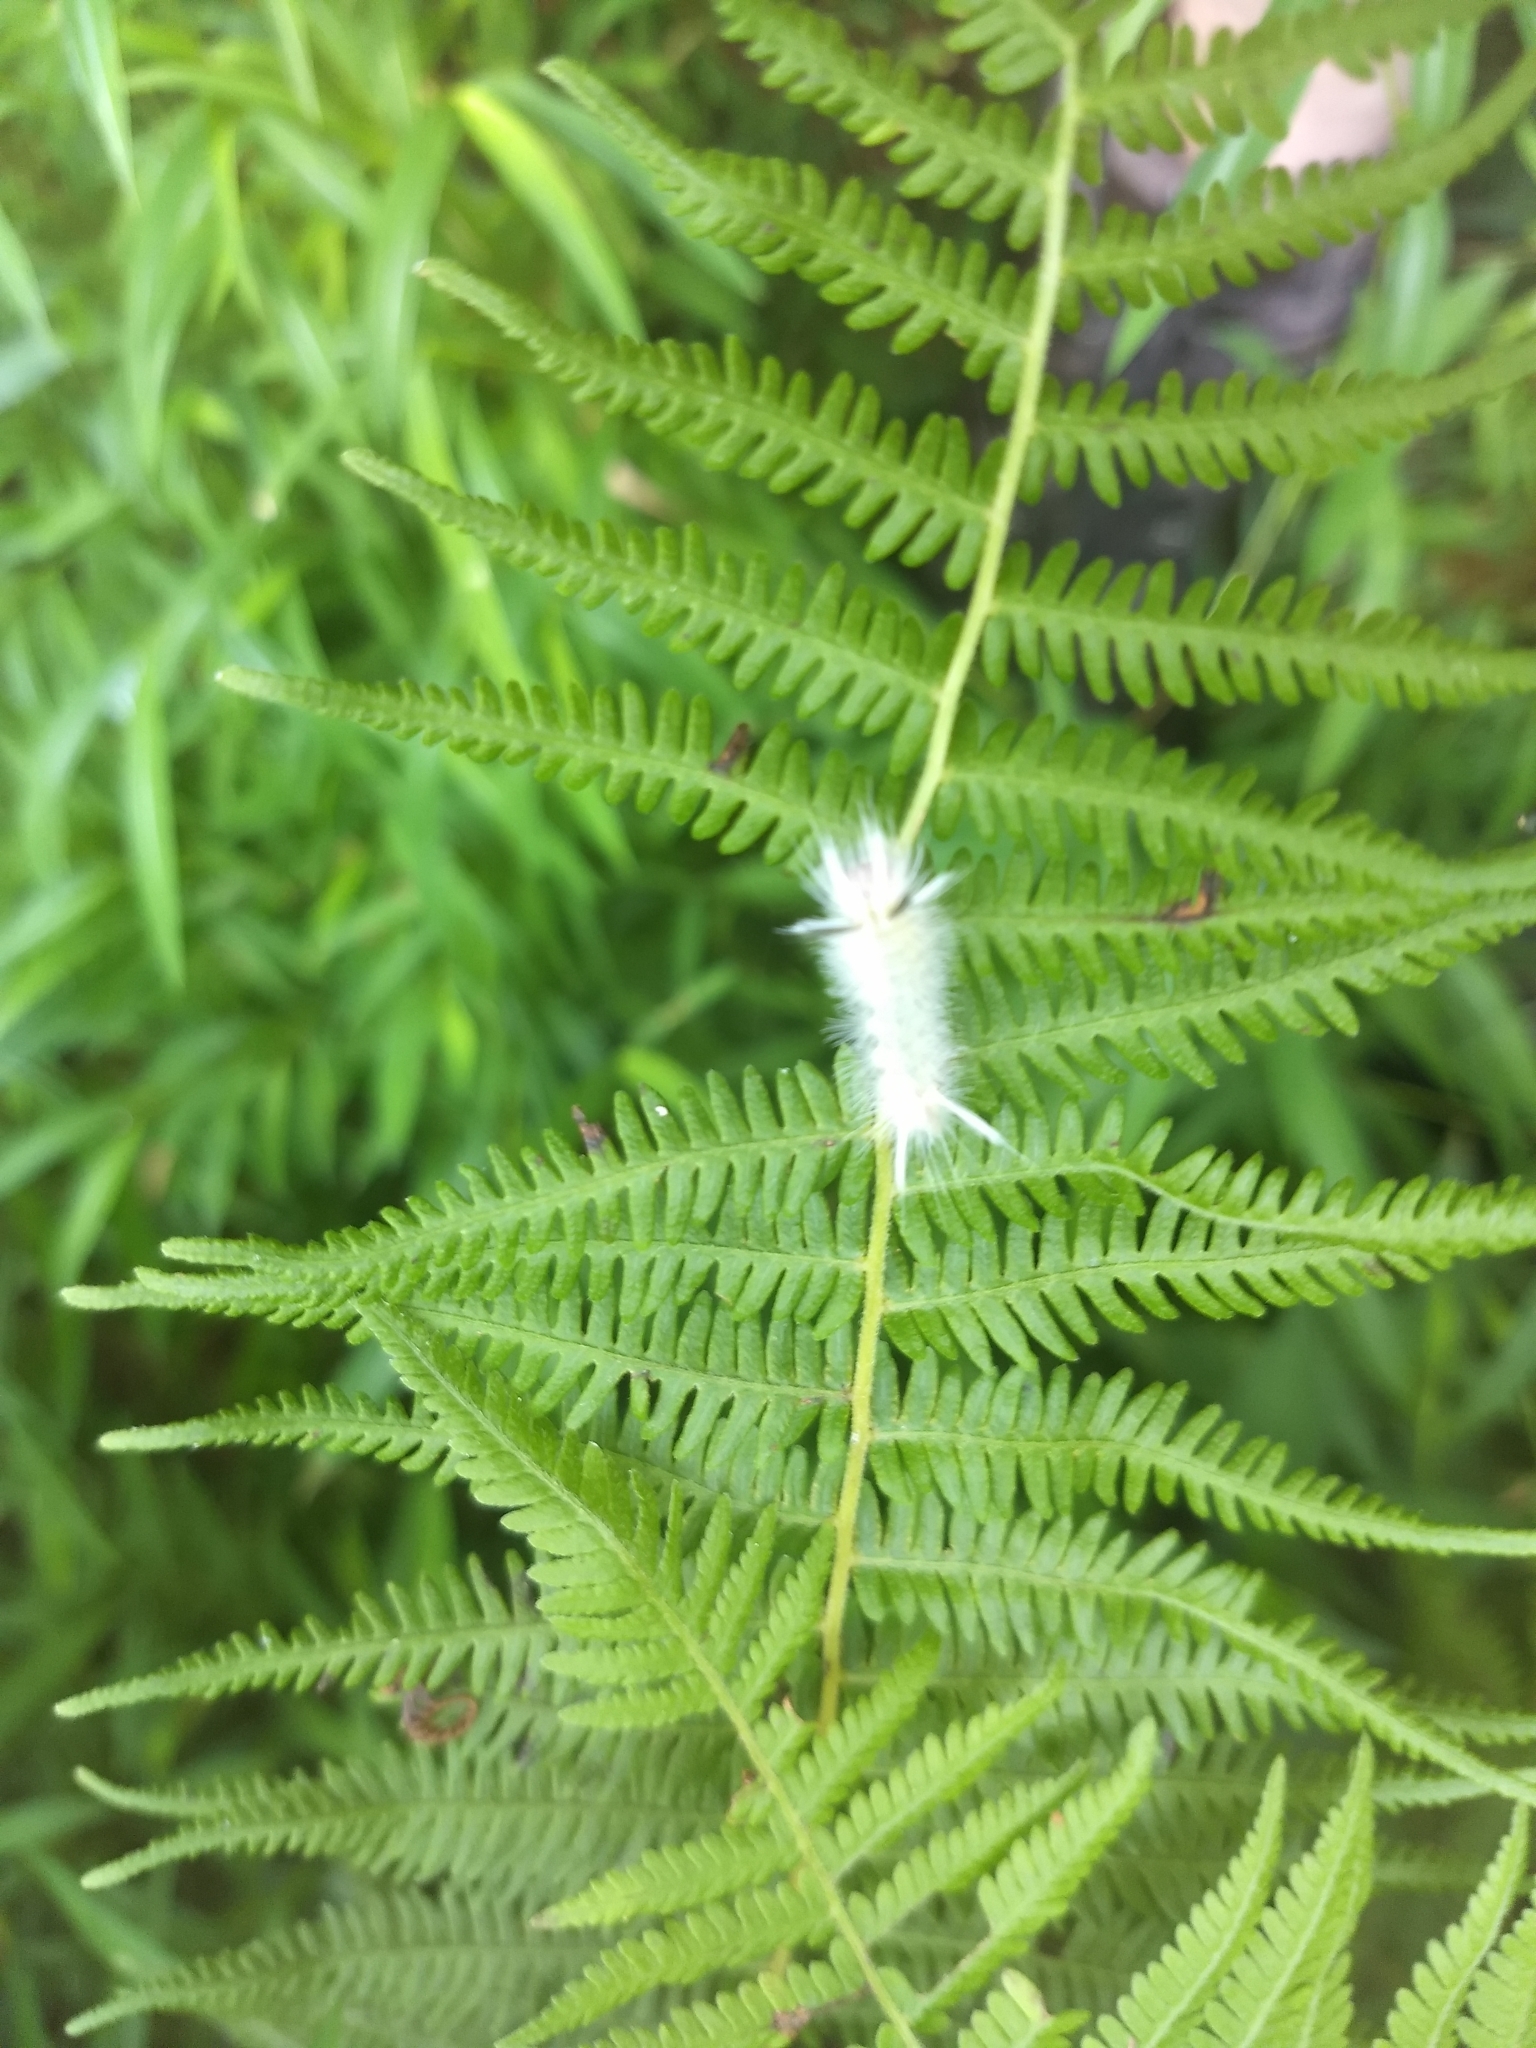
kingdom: Animalia
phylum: Arthropoda
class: Insecta
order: Lepidoptera
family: Erebidae
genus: Halysidota
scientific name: Halysidota tessellaris
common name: Banded tussock moth
